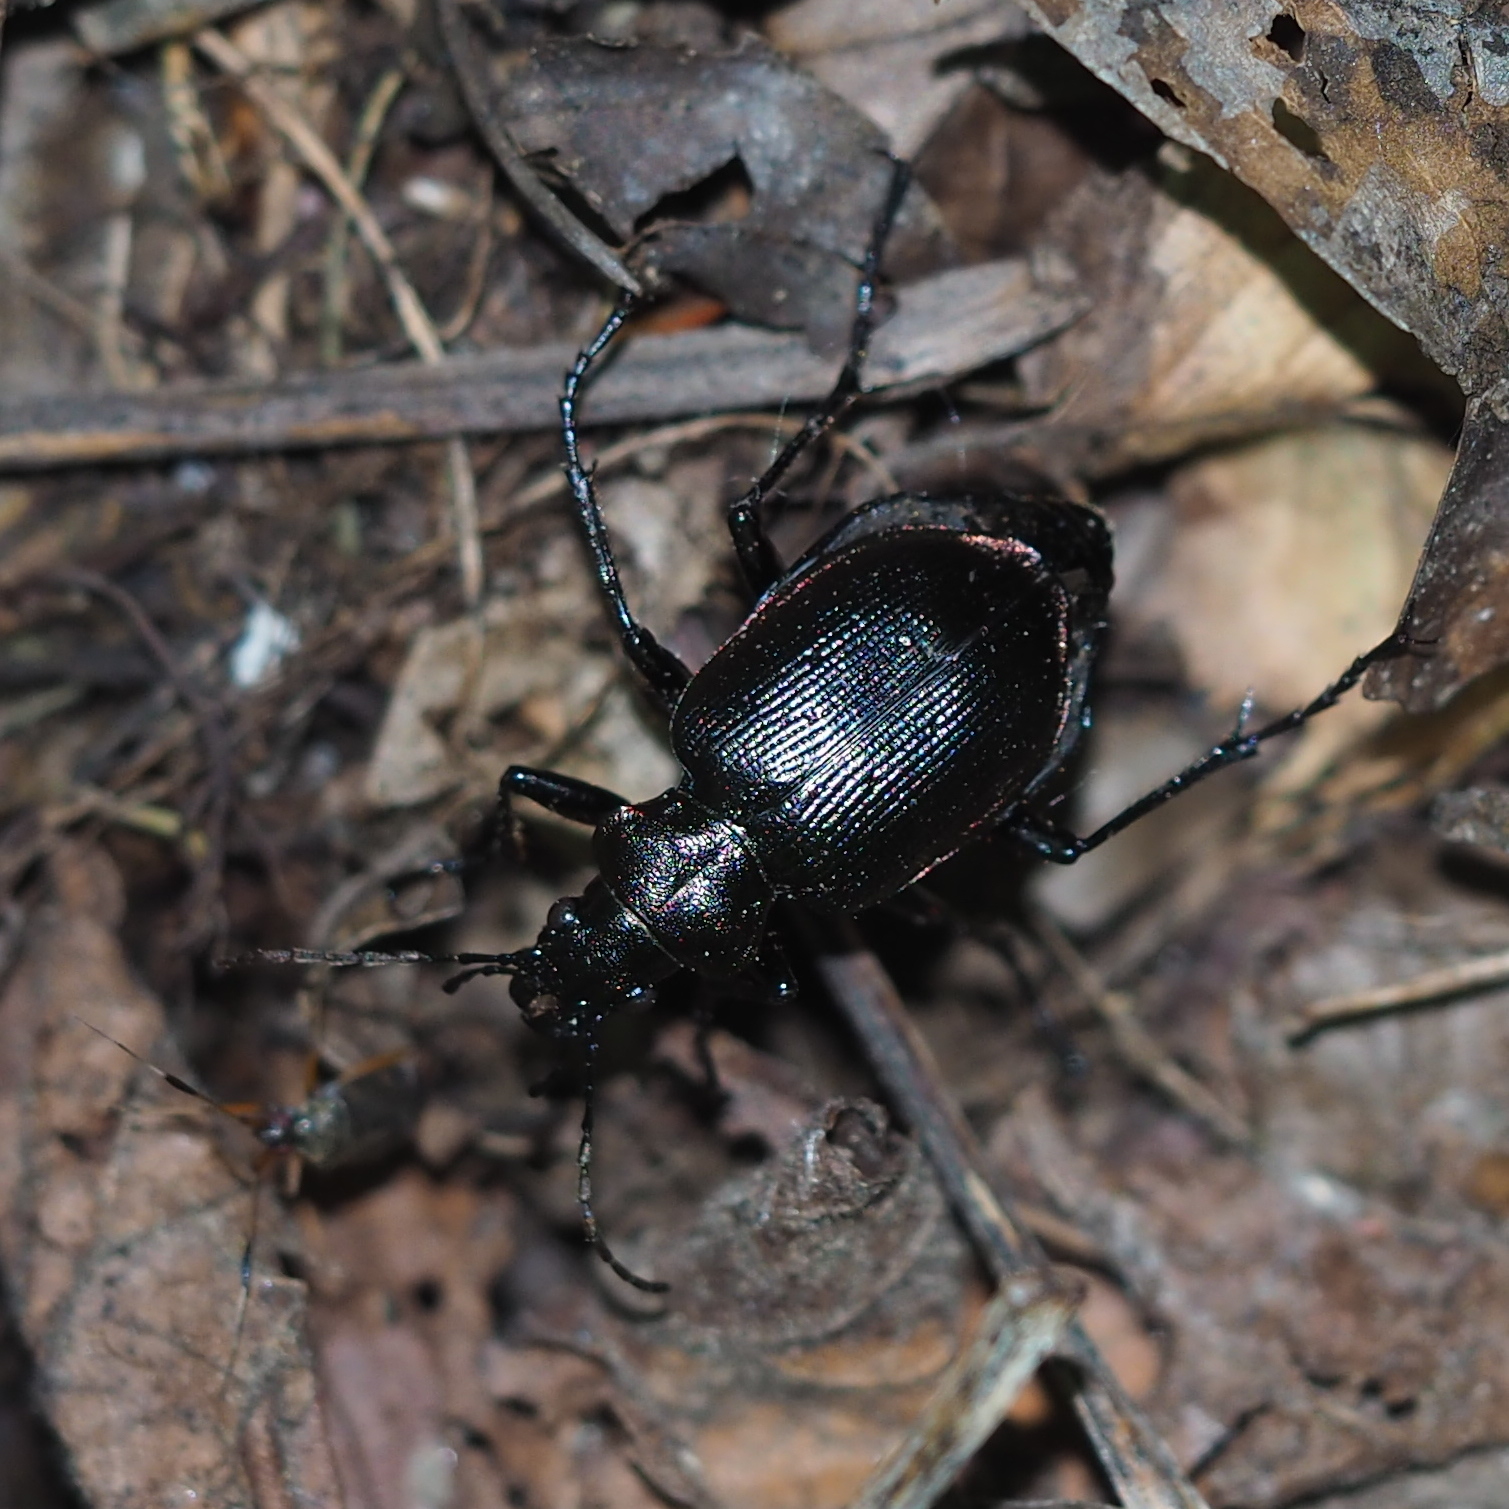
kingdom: Animalia
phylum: Arthropoda
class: Insecta
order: Hemiptera
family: Miridae
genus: Closterotomus
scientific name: Closterotomus biclavatus
